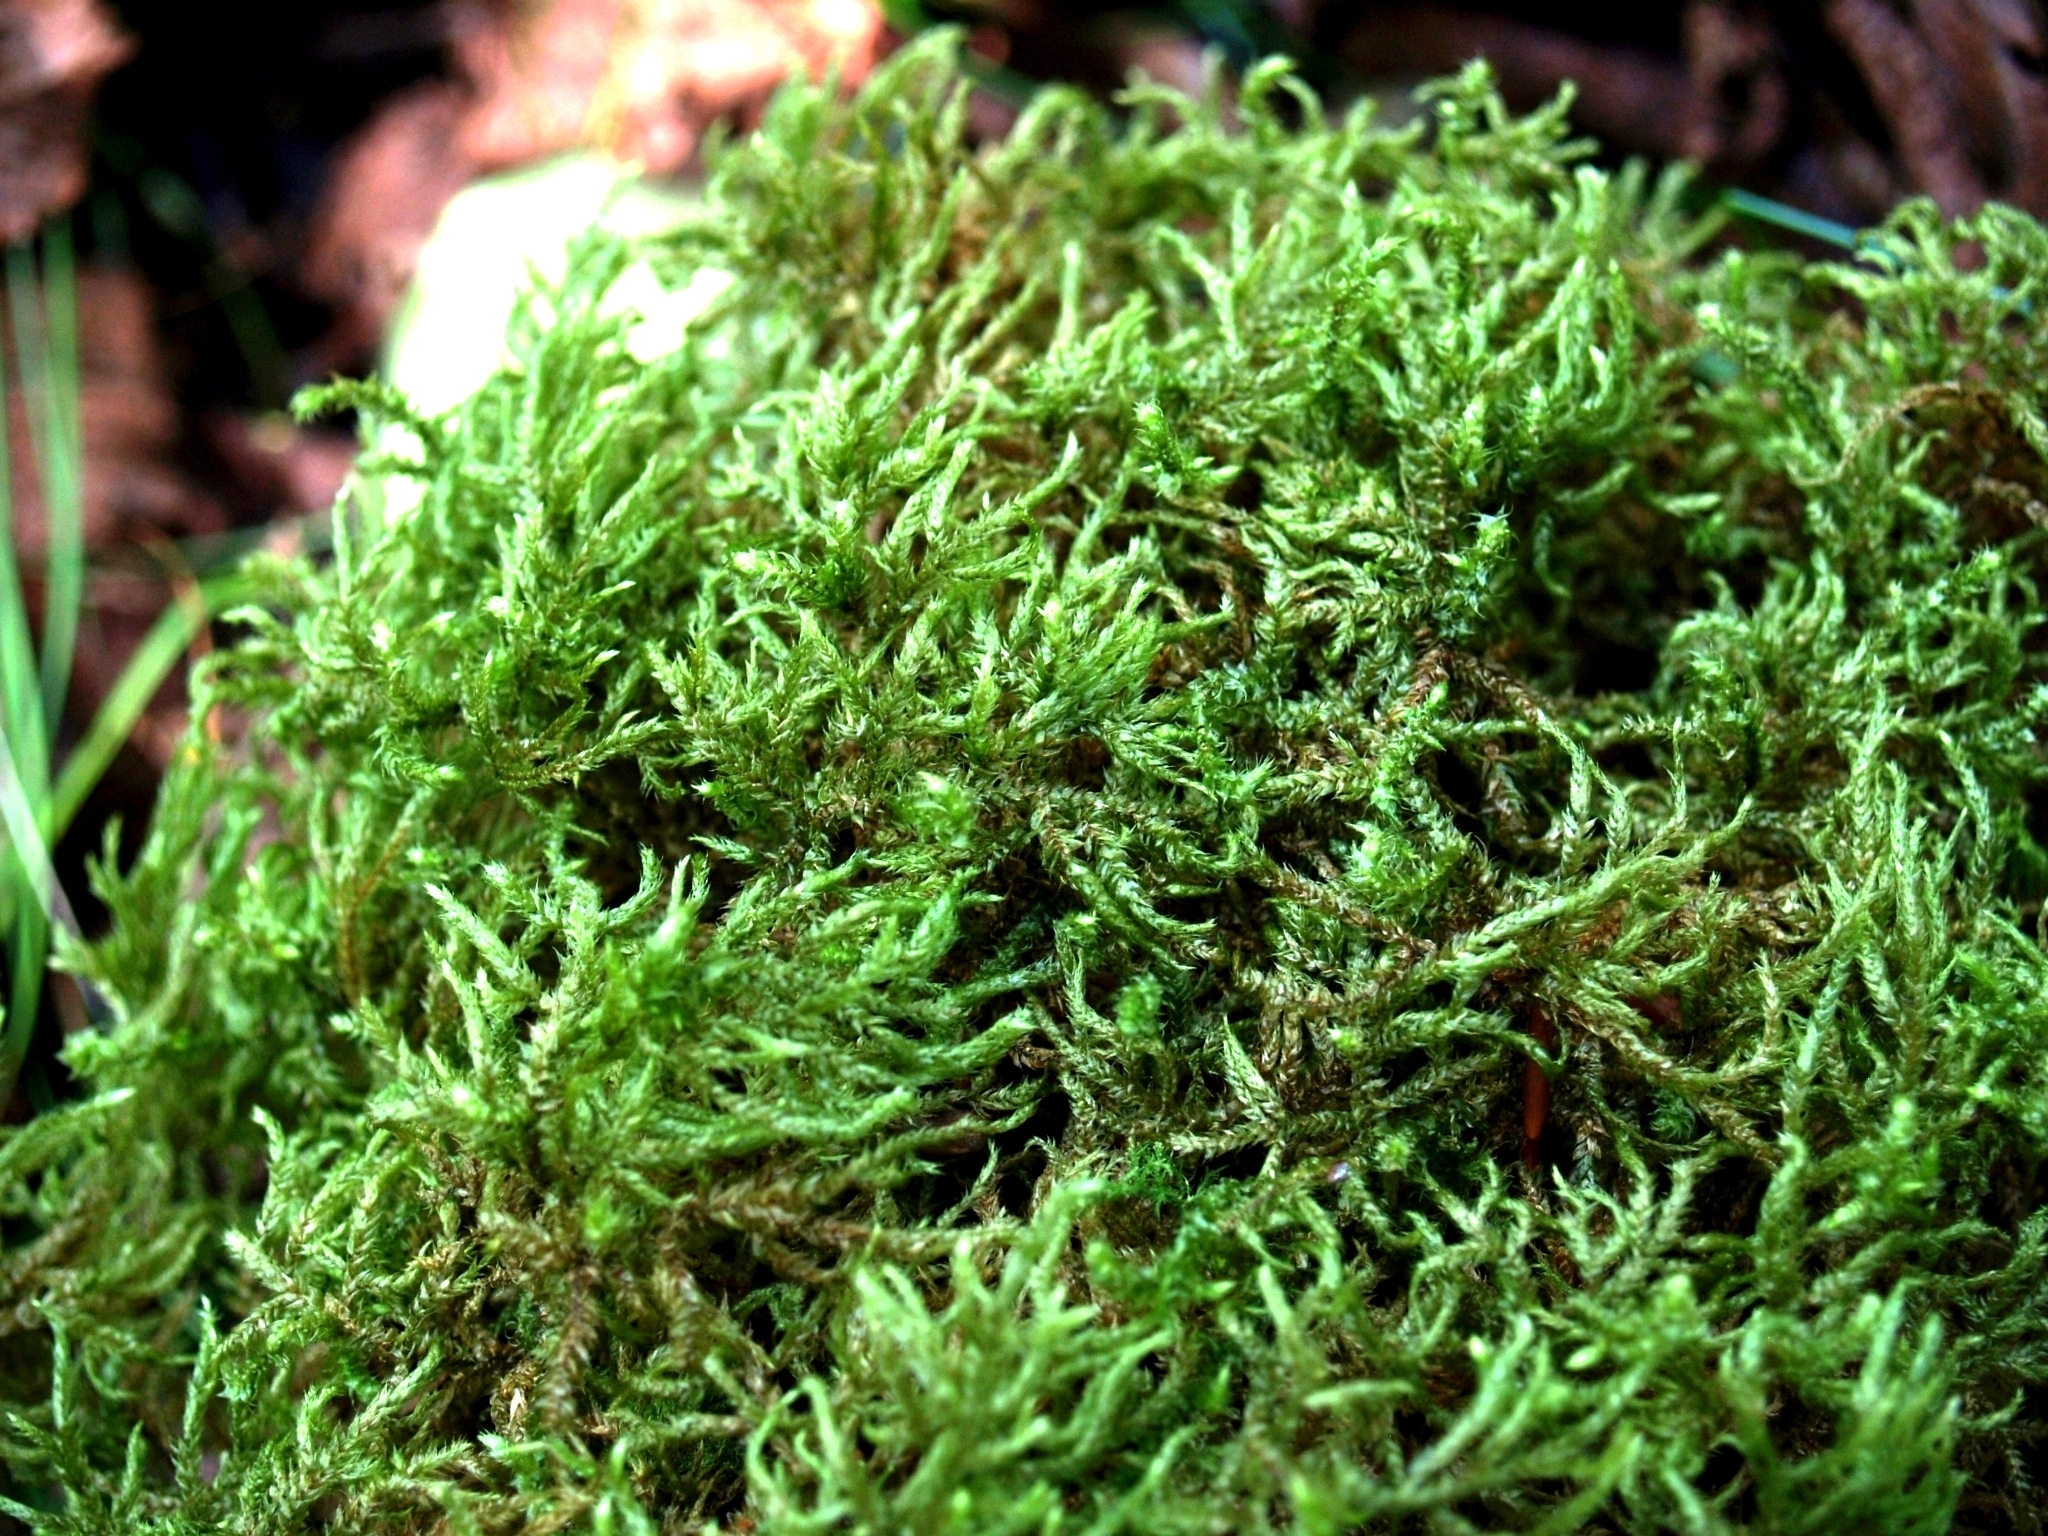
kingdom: Plantae
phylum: Bryophyta
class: Bryopsida
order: Hypnales
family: Hylocomiaceae
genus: Loeskeobryum
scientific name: Loeskeobryum brevirostre
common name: Short-beaked wood-moss
